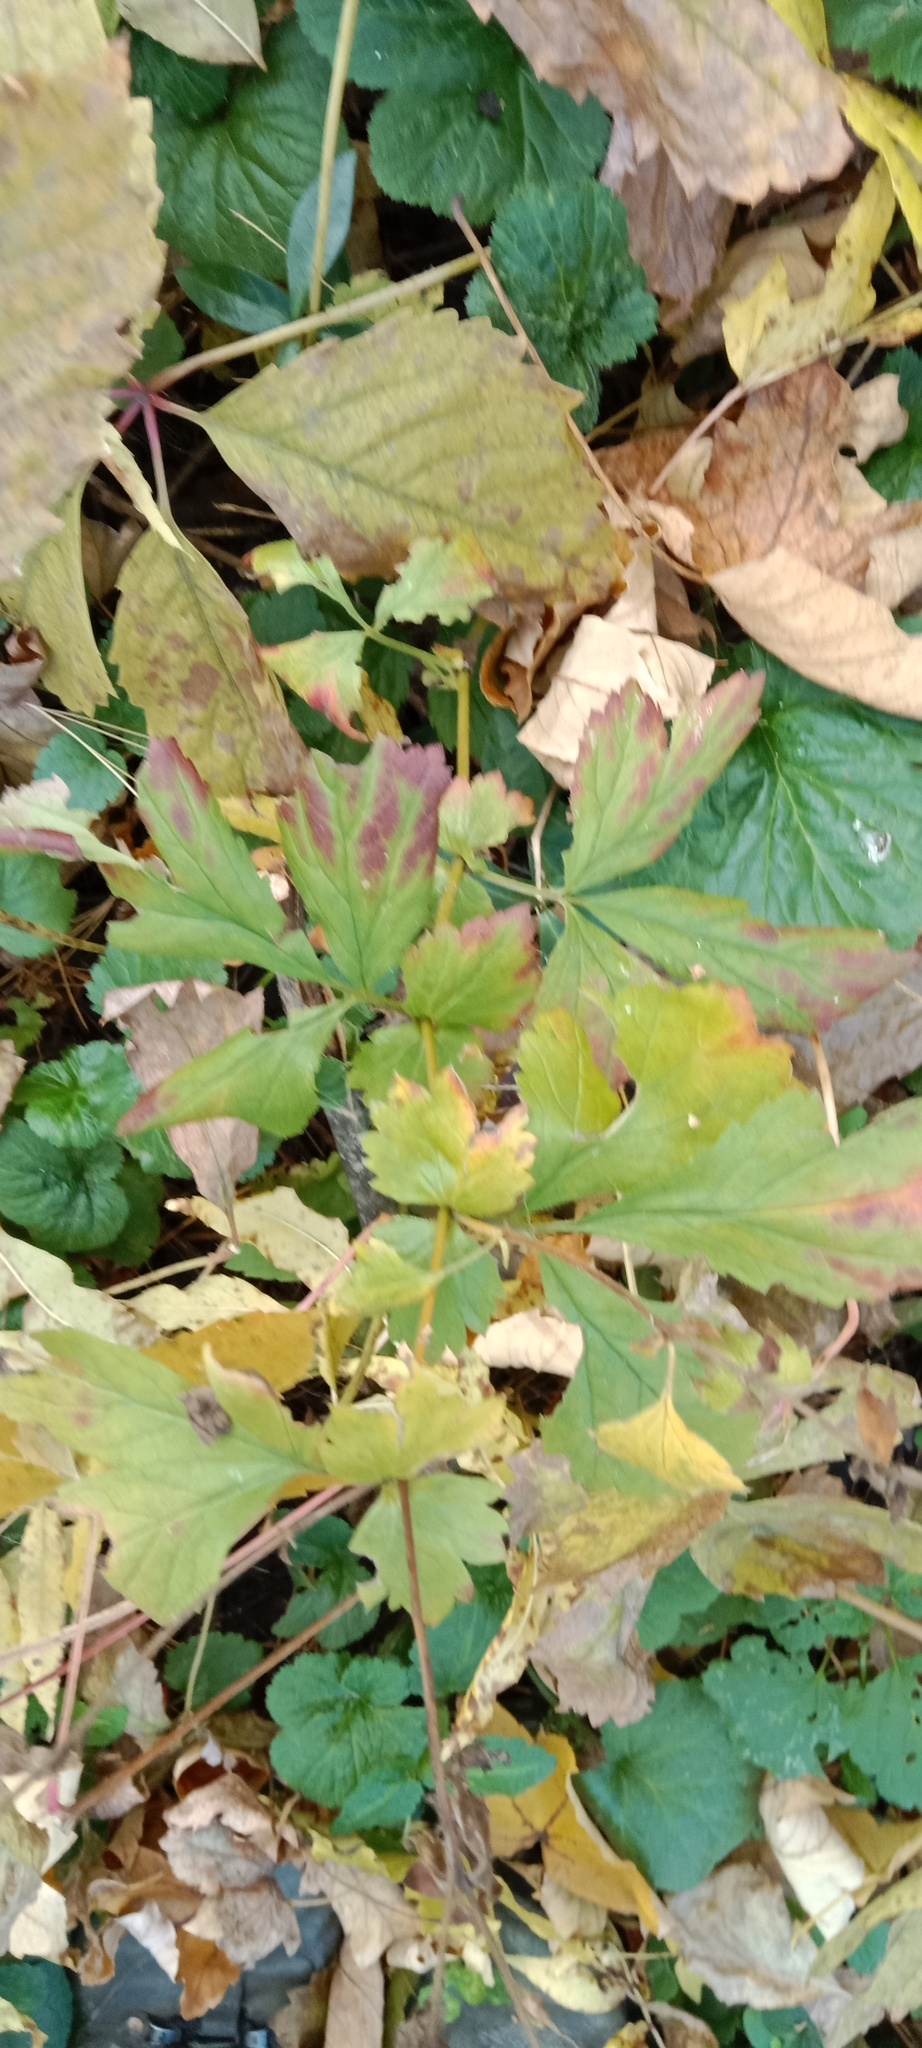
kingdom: Plantae
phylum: Tracheophyta
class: Magnoliopsida
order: Rosales
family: Rosaceae
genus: Geum
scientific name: Geum urbanum
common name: Wood avens
